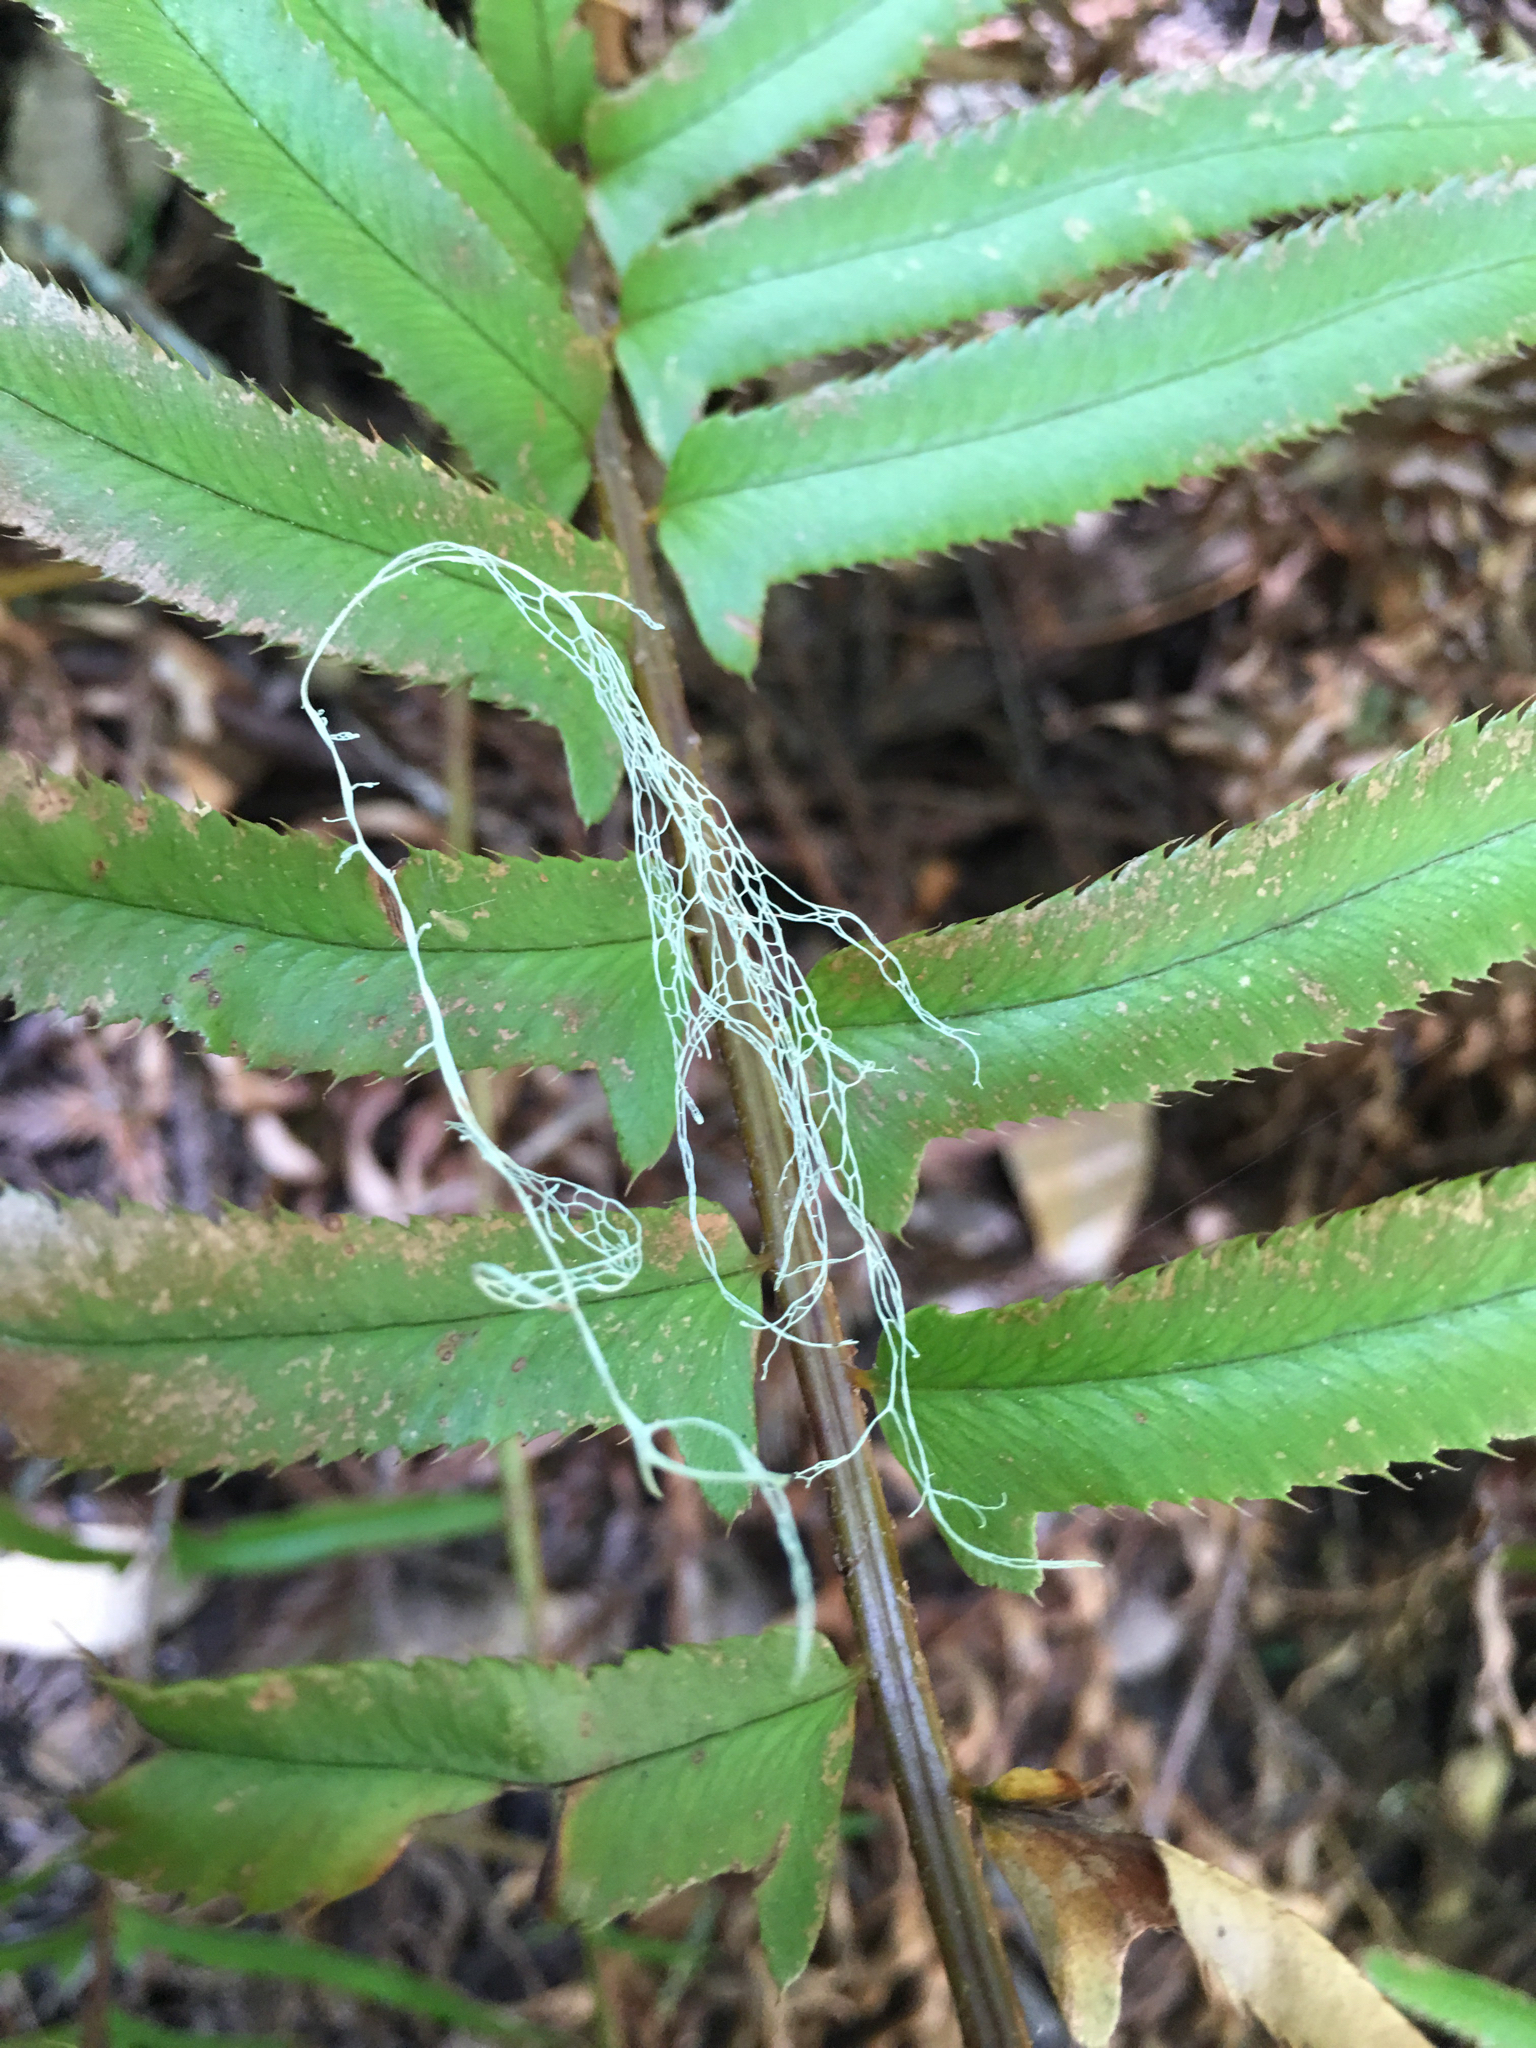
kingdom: Fungi
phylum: Ascomycota
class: Lecanoromycetes
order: Lecanorales
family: Ramalinaceae
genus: Ramalina
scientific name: Ramalina menziesii
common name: Lace lichen
